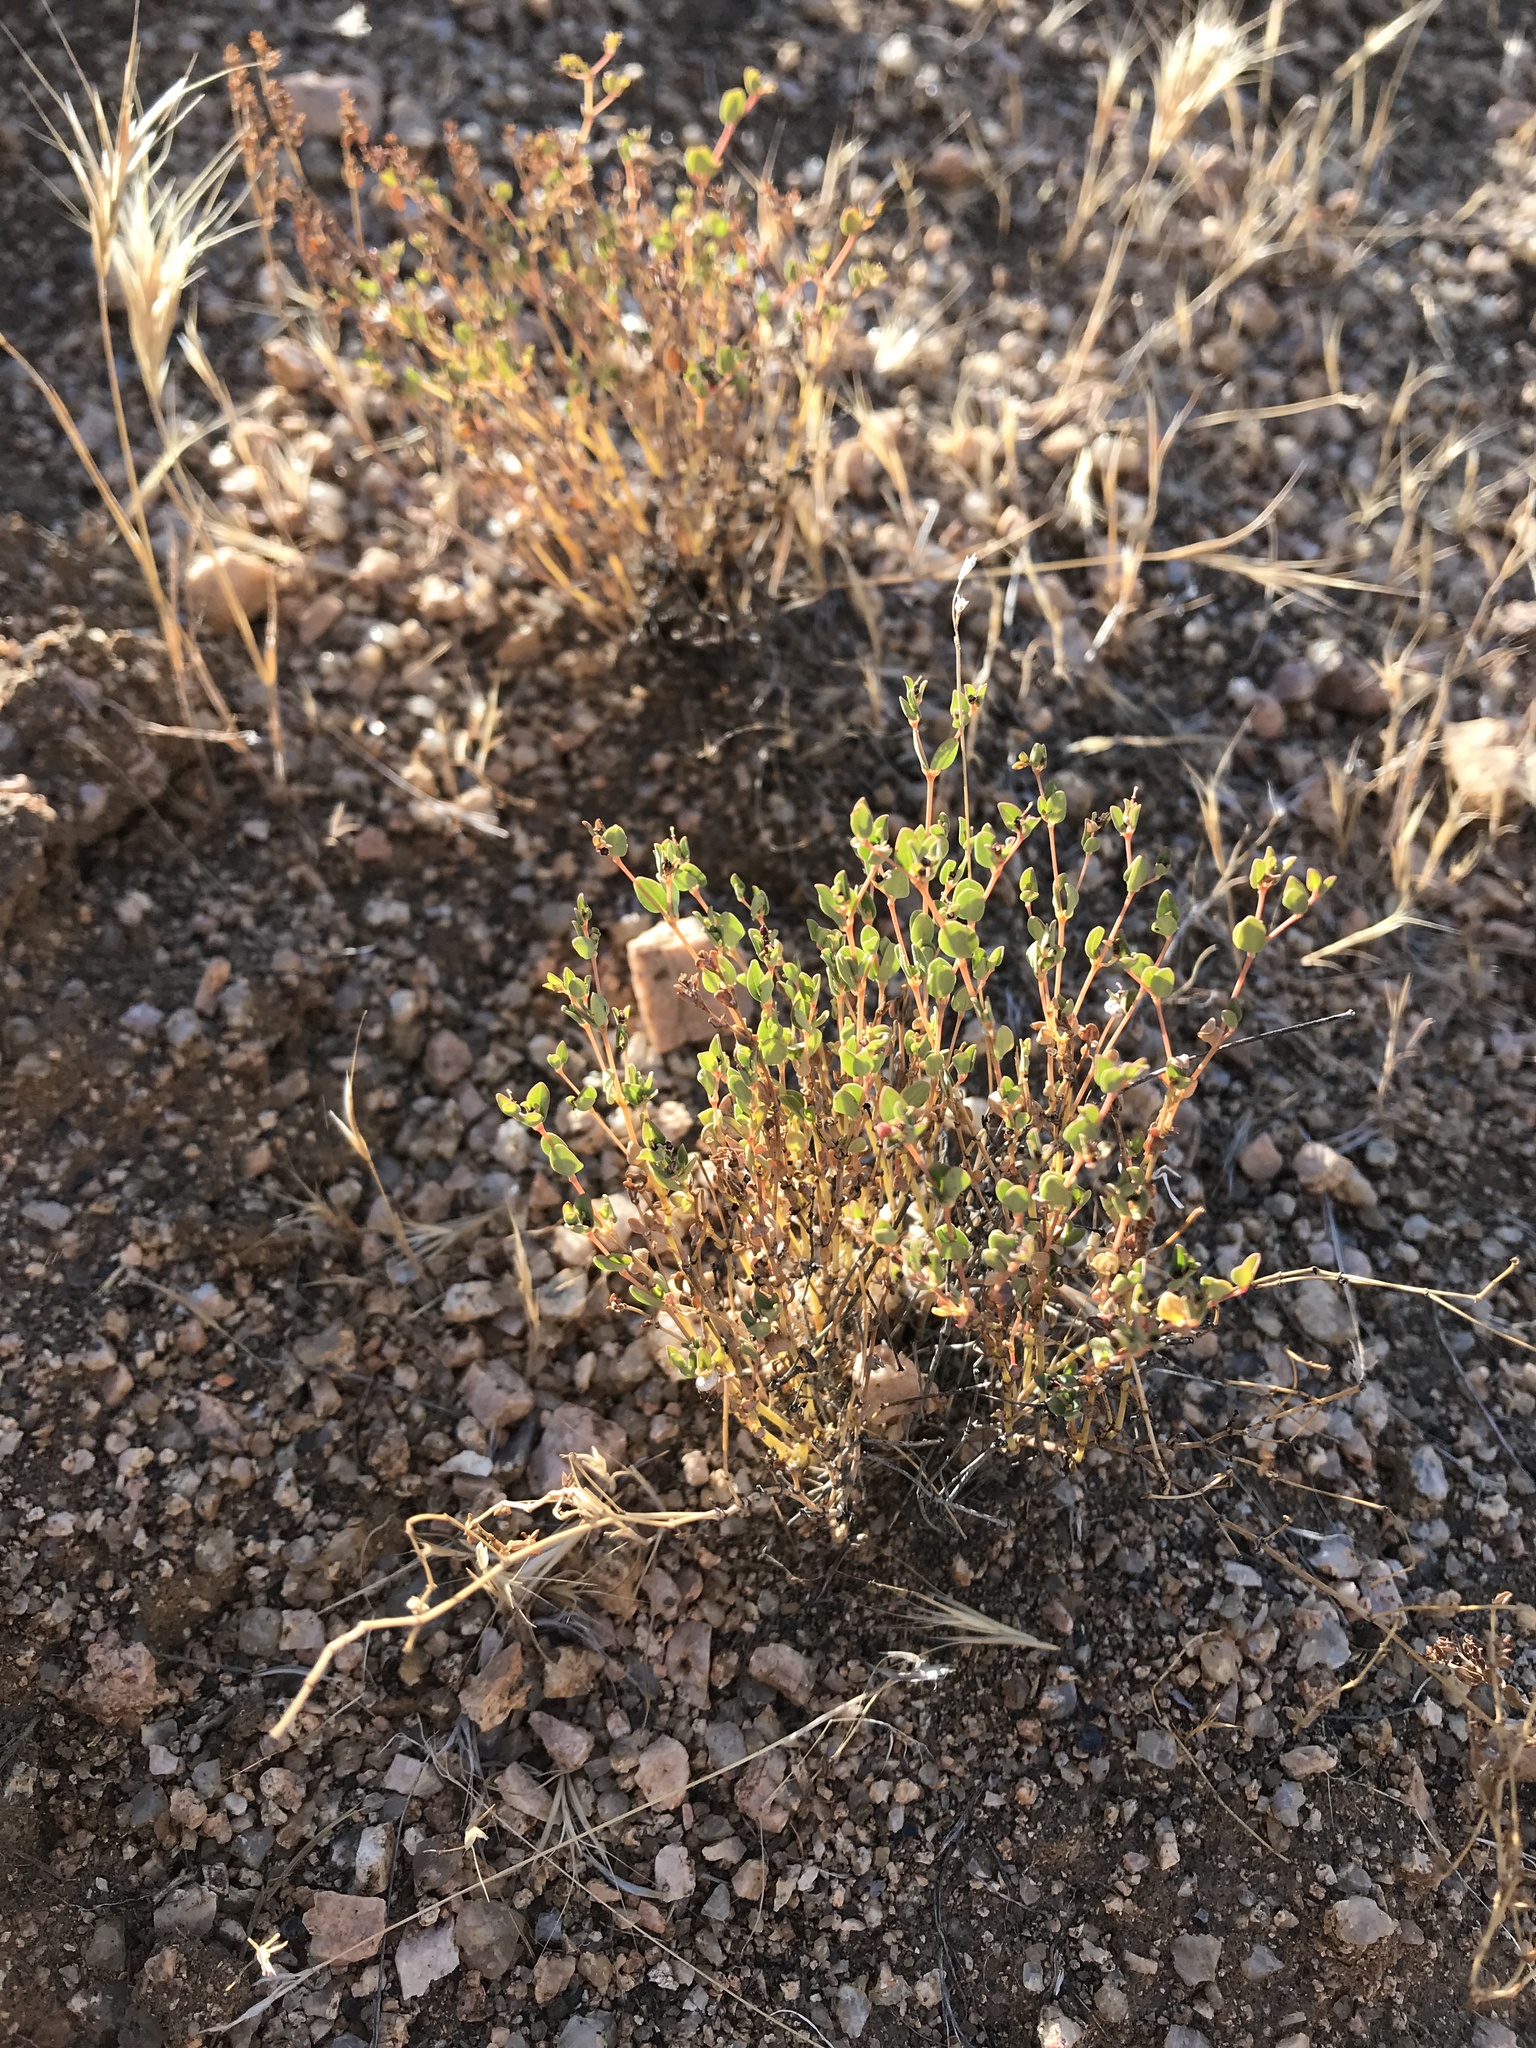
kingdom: Plantae
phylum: Tracheophyta
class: Magnoliopsida
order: Malpighiales
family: Euphorbiaceae
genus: Euphorbia
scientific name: Euphorbia polycarpa
